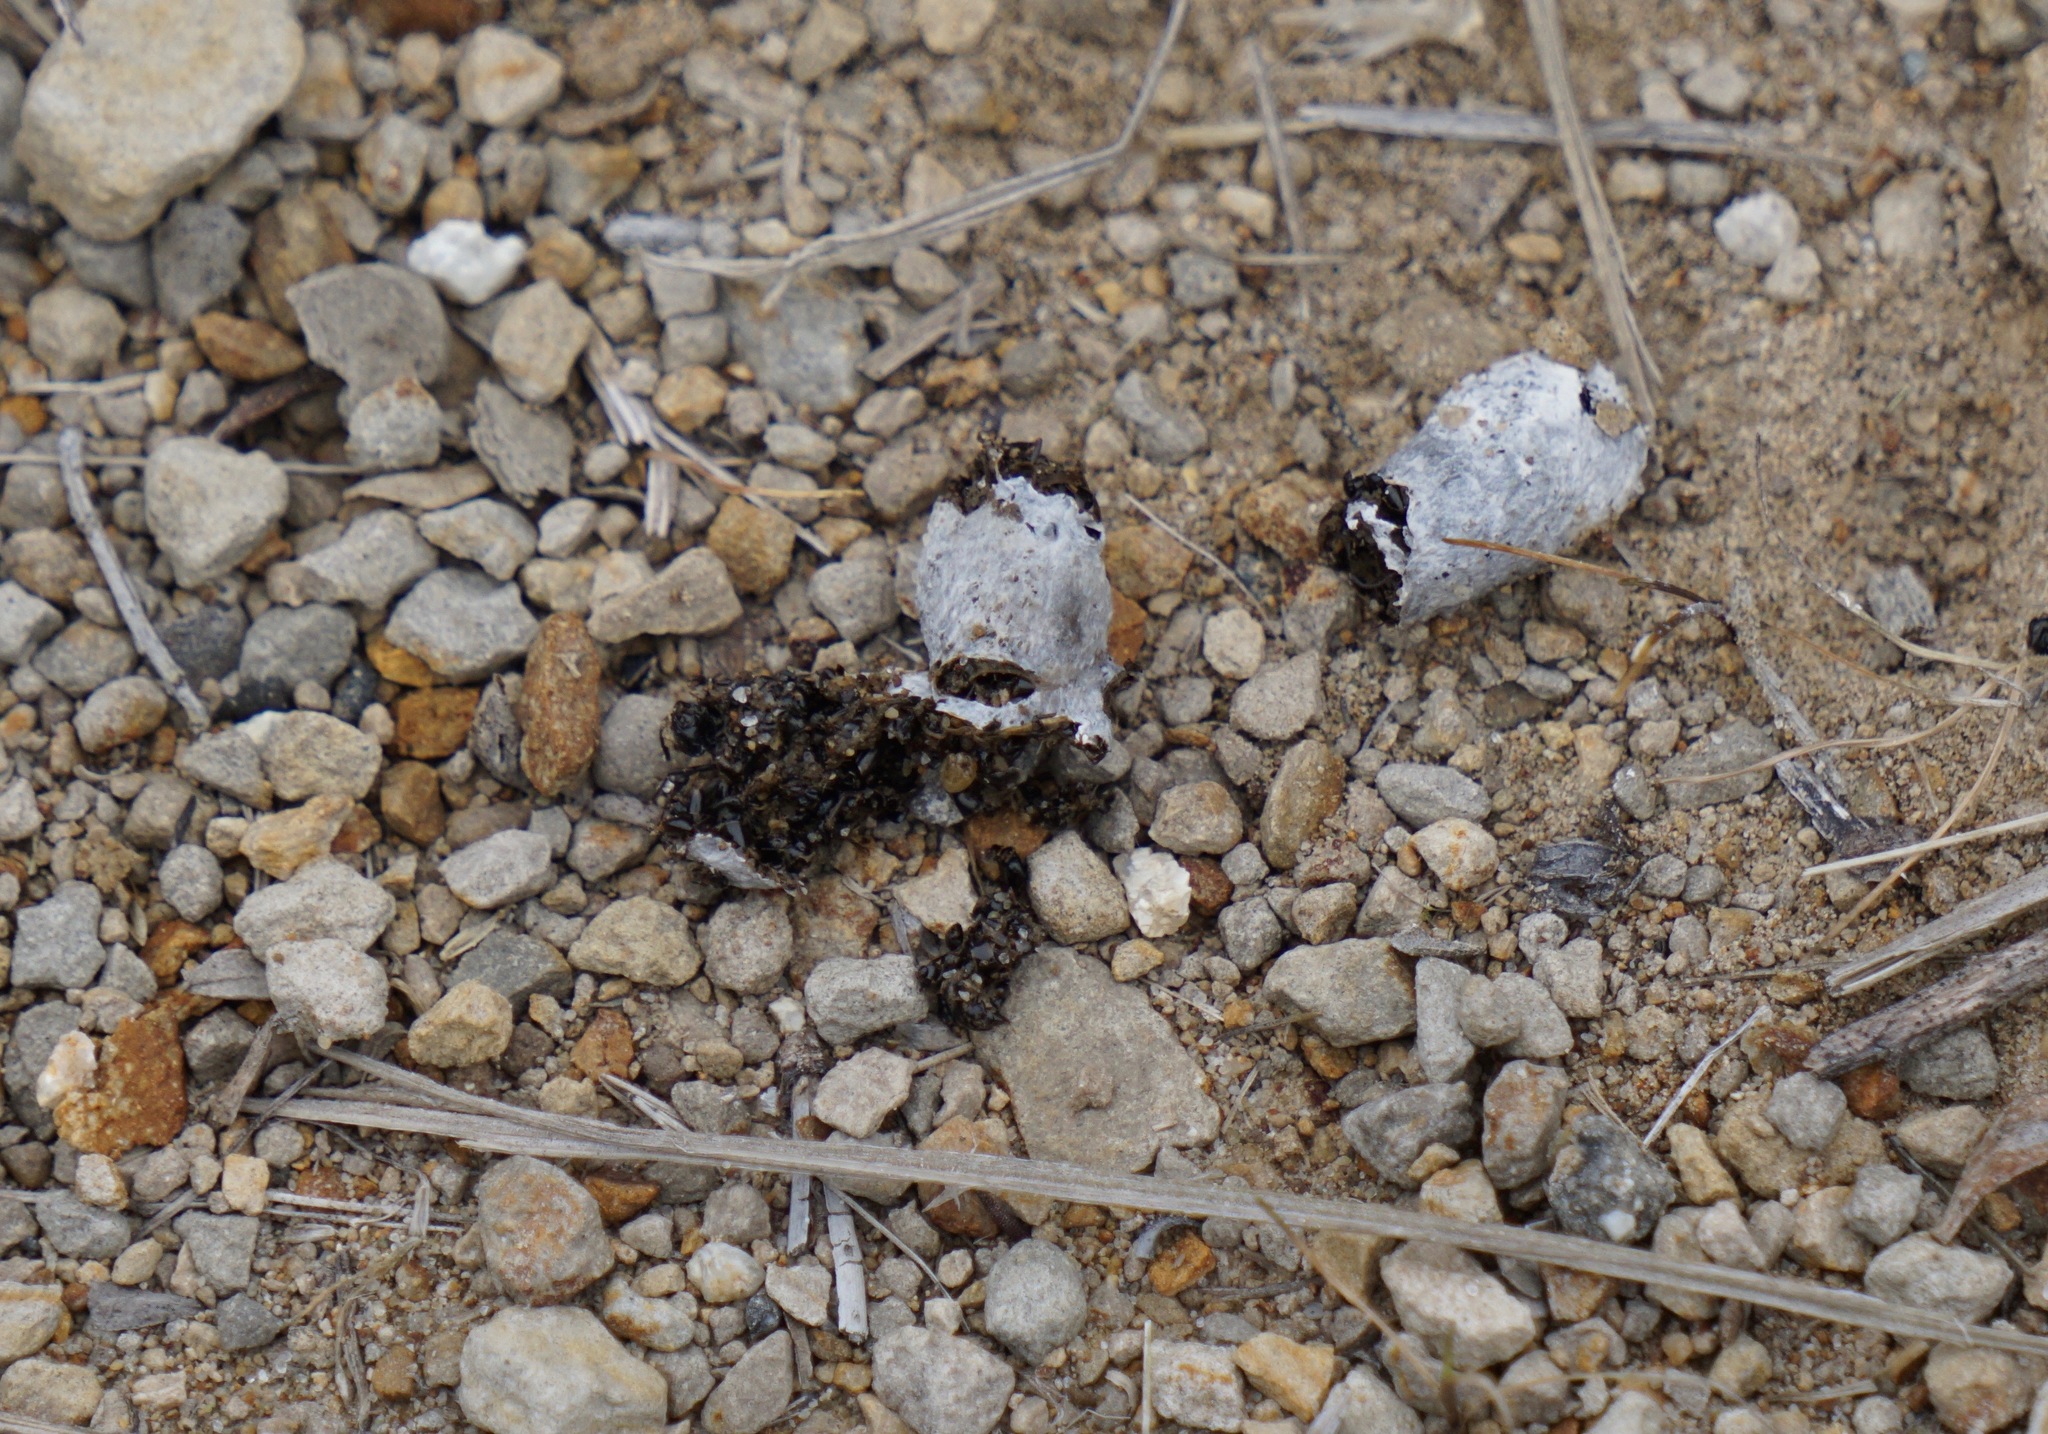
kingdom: Animalia
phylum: Chordata
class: Aves
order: Piciformes
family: Picidae
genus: Colaptes
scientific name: Colaptes auratus
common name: Northern flicker
